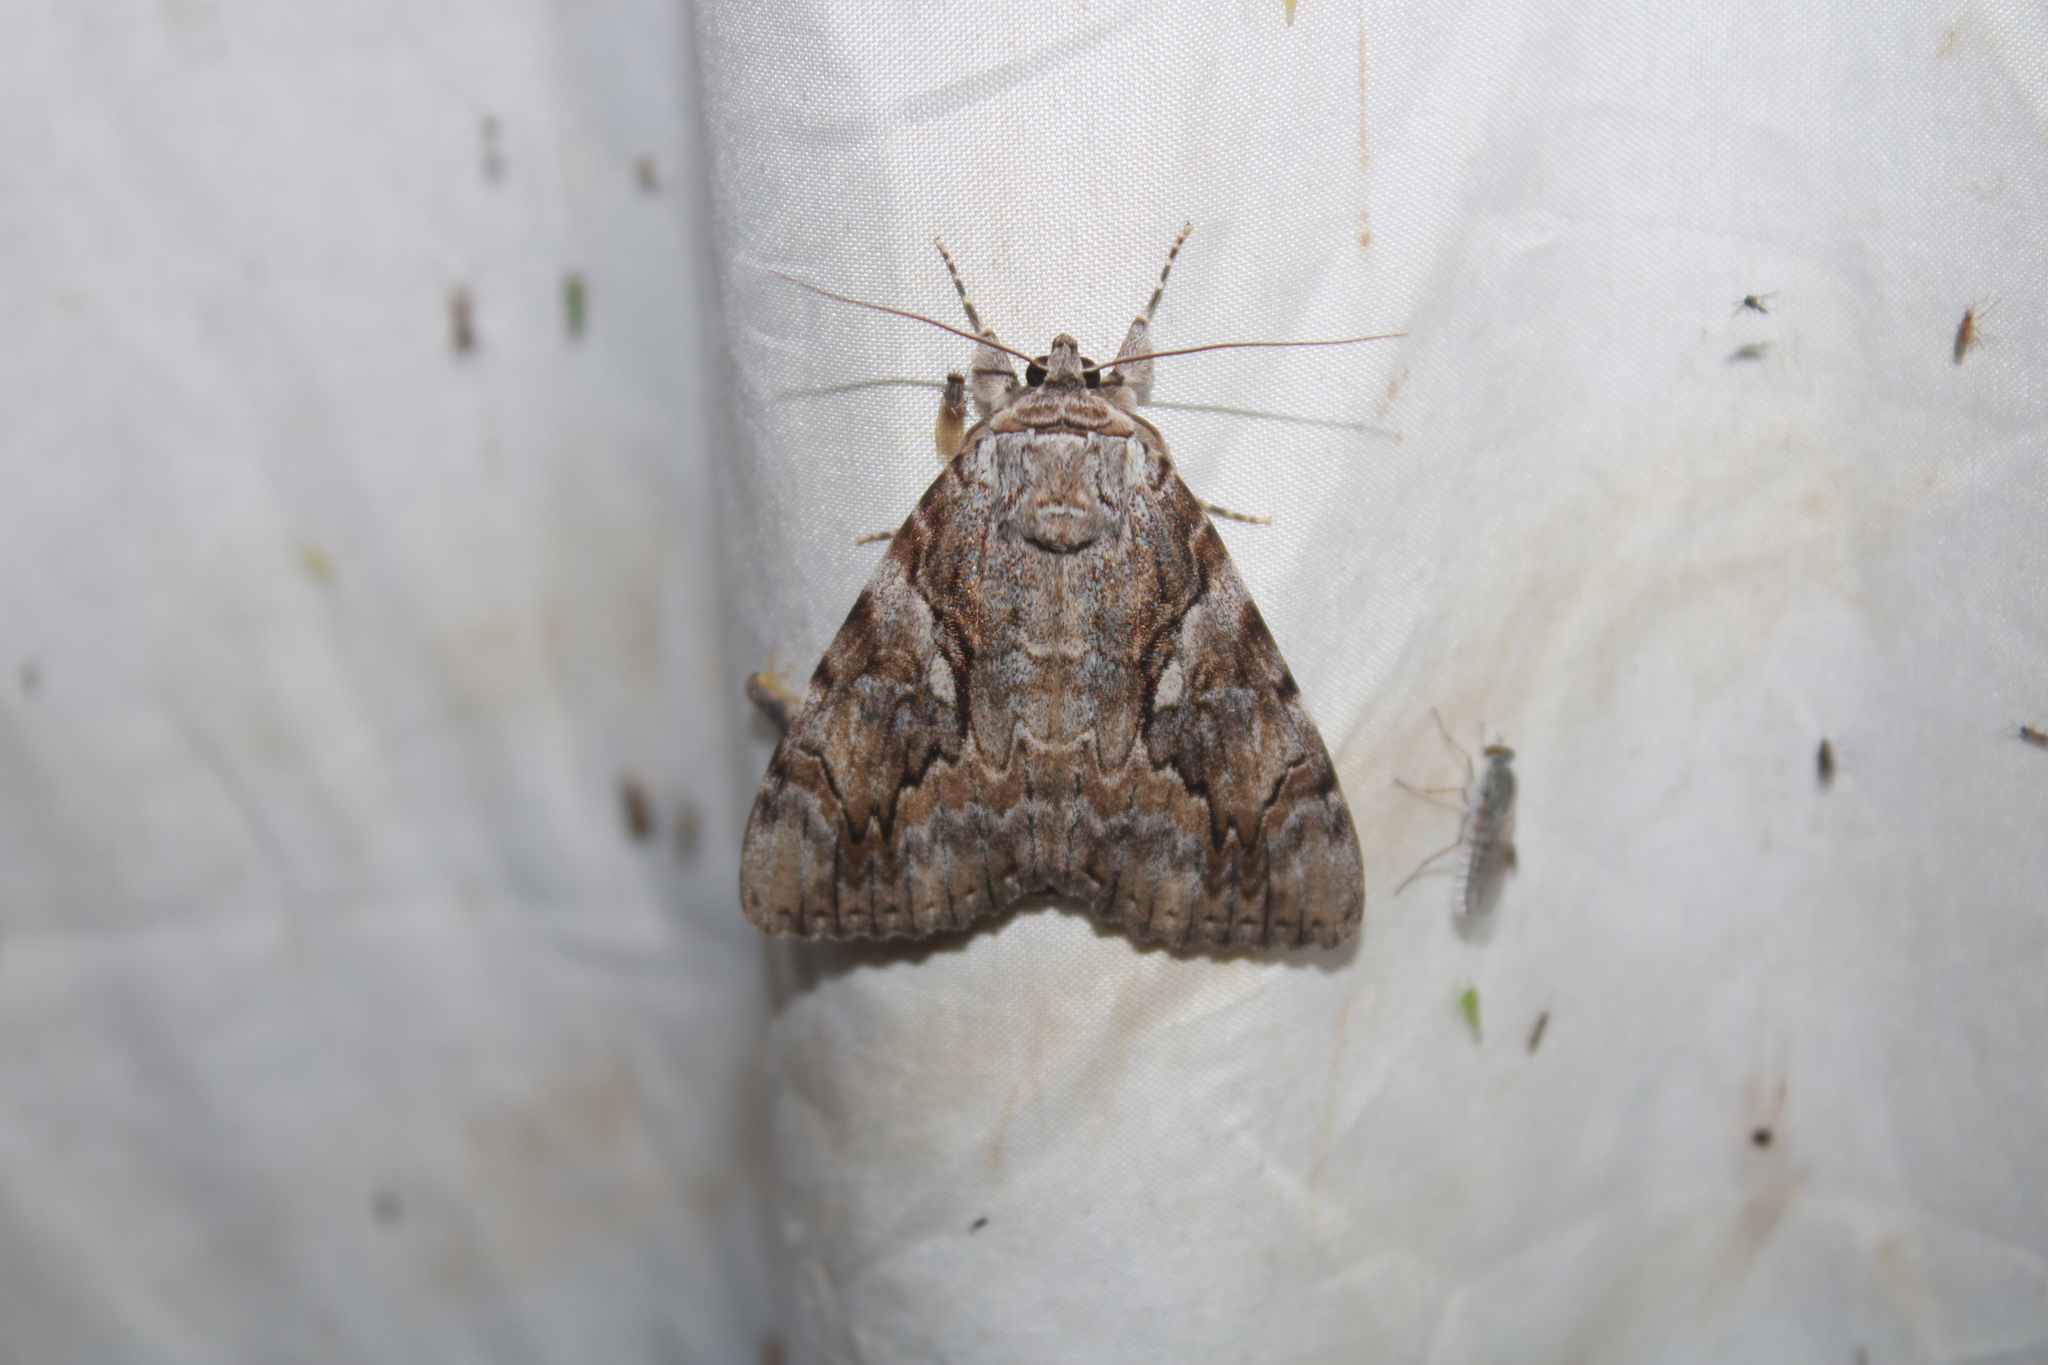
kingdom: Animalia
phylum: Arthropoda
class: Insecta
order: Lepidoptera
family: Erebidae
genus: Catocala
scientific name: Catocala cerogama
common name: Yellow banded underwing
